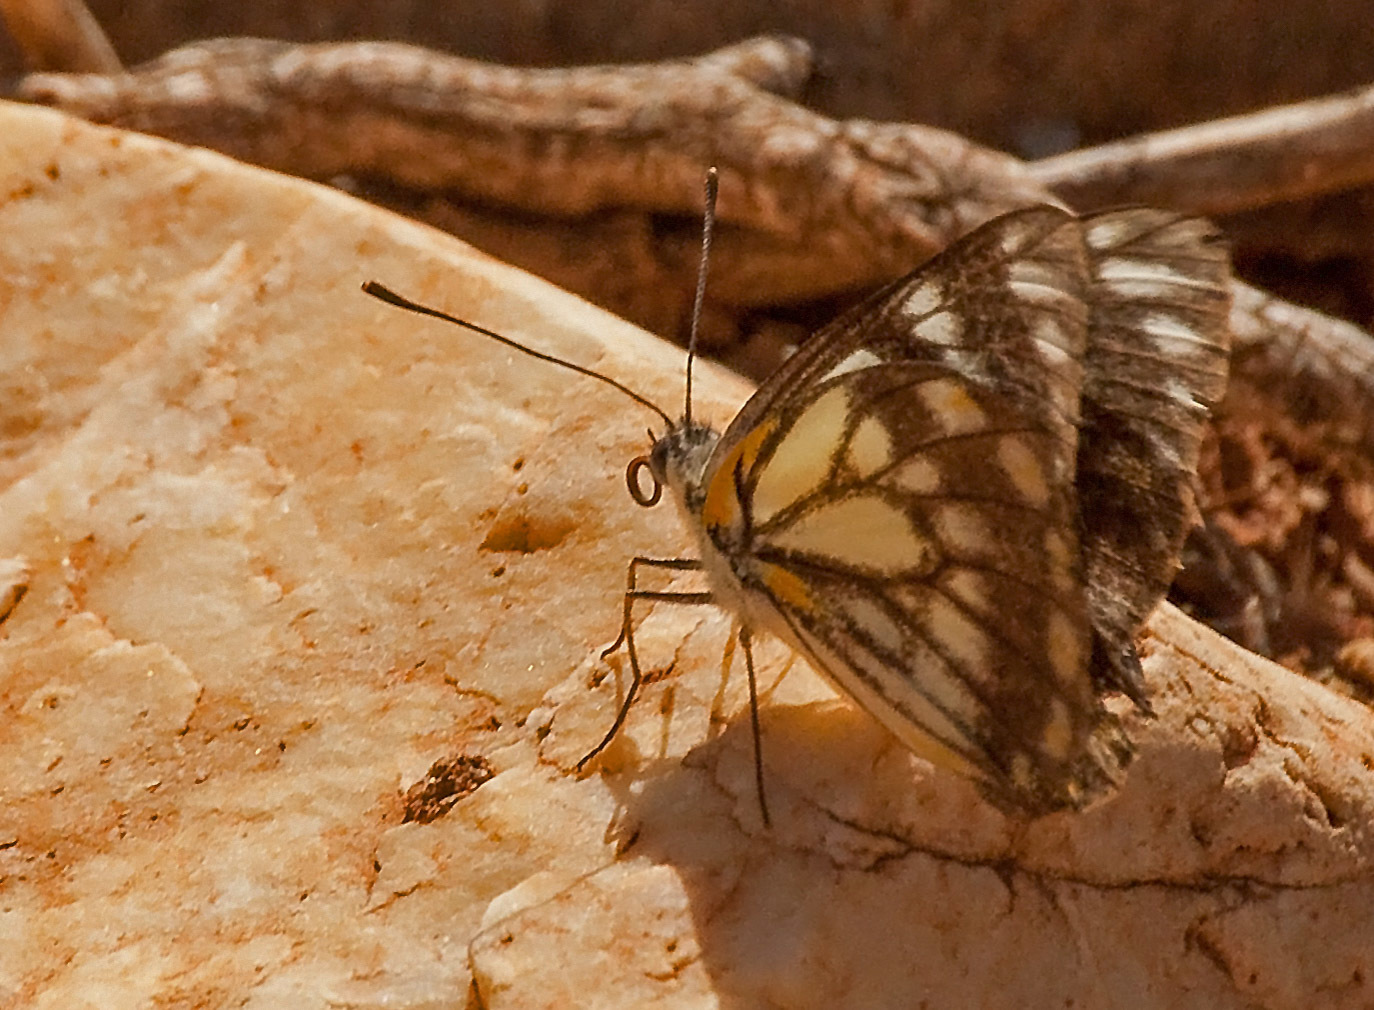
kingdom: Animalia
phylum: Arthropoda
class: Insecta
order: Lepidoptera
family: Pieridae
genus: Belenois
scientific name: Belenois java
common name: Caper white
